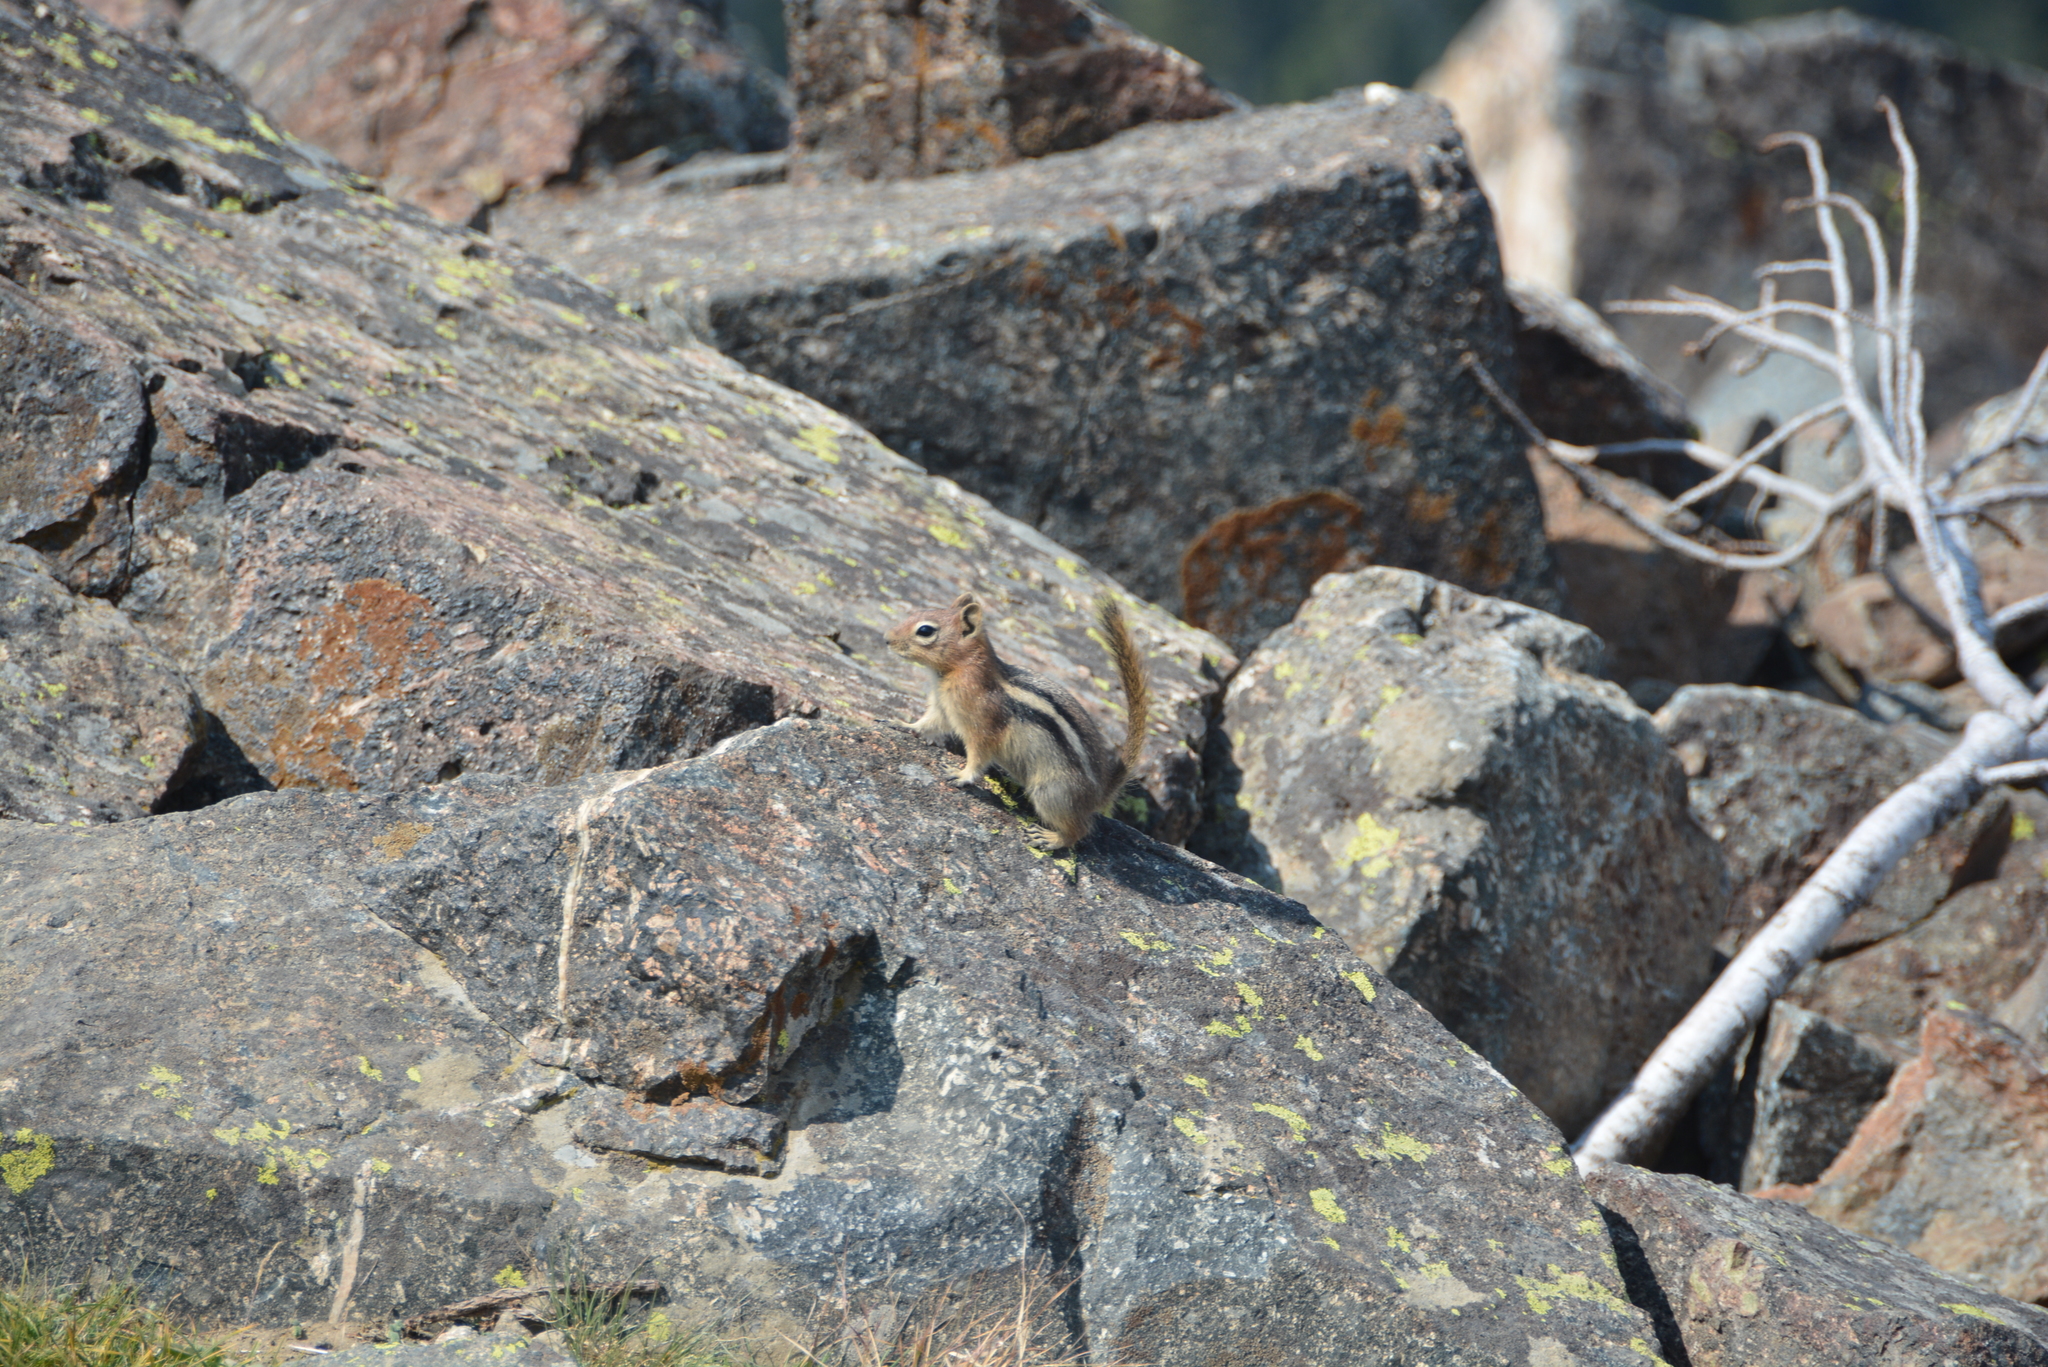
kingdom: Animalia
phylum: Chordata
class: Mammalia
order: Rodentia
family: Sciuridae
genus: Callospermophilus
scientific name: Callospermophilus lateralis
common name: Golden-mantled ground squirrel
